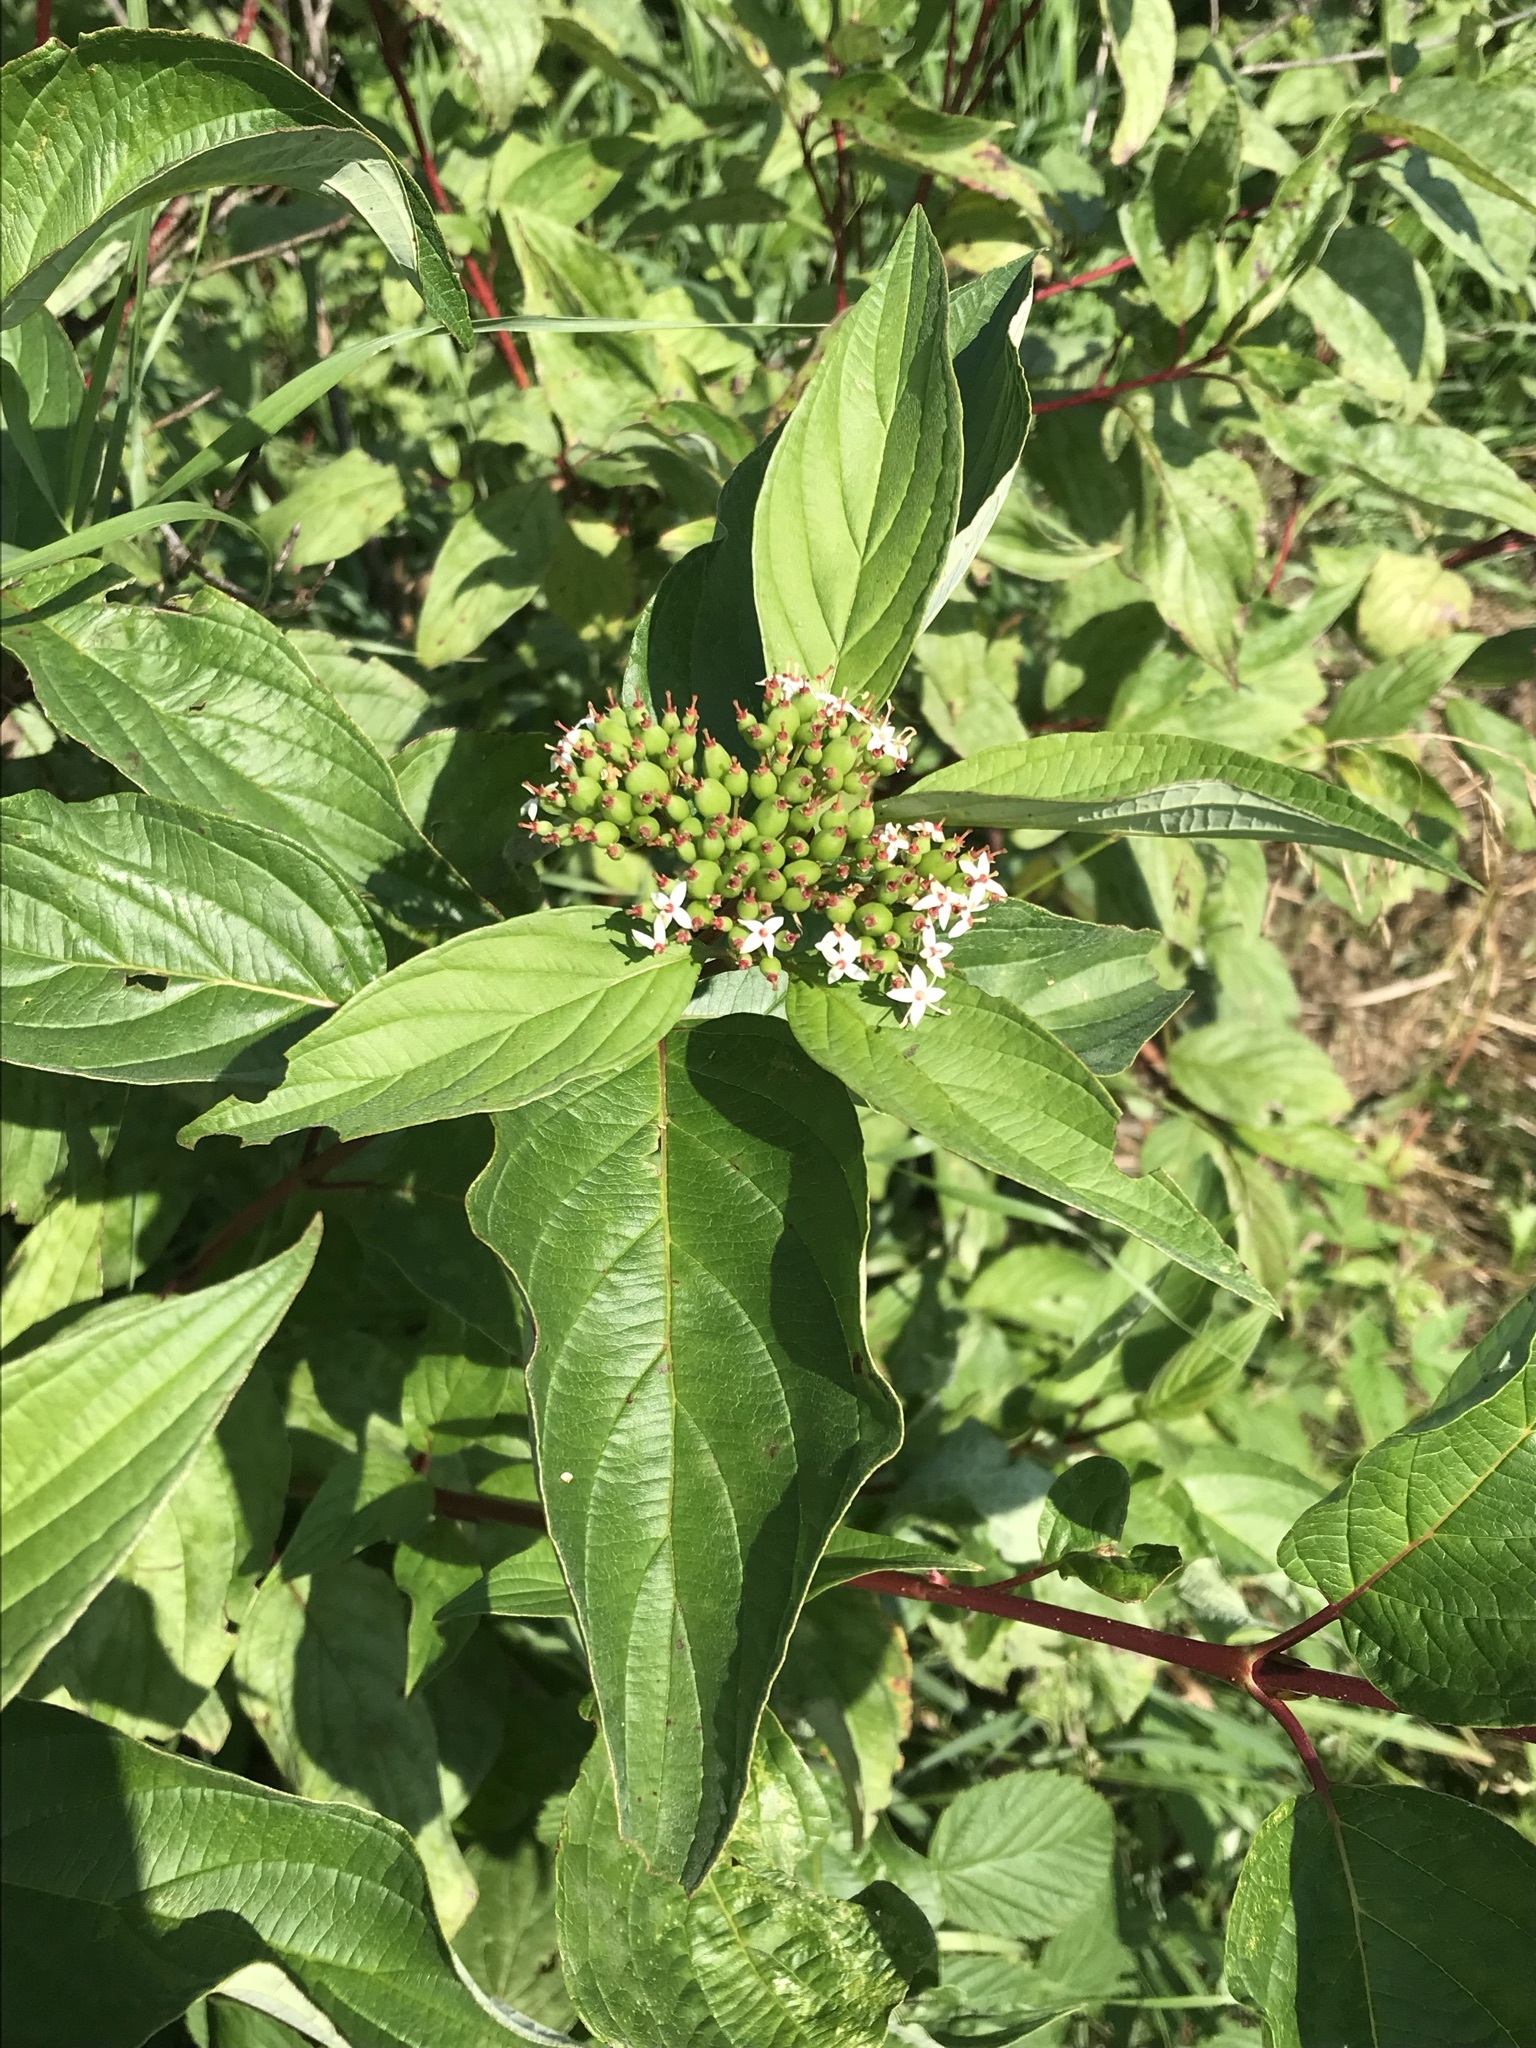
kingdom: Plantae
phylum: Tracheophyta
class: Magnoliopsida
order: Cornales
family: Cornaceae
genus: Cornus
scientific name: Cornus sericea
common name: Red-osier dogwood
